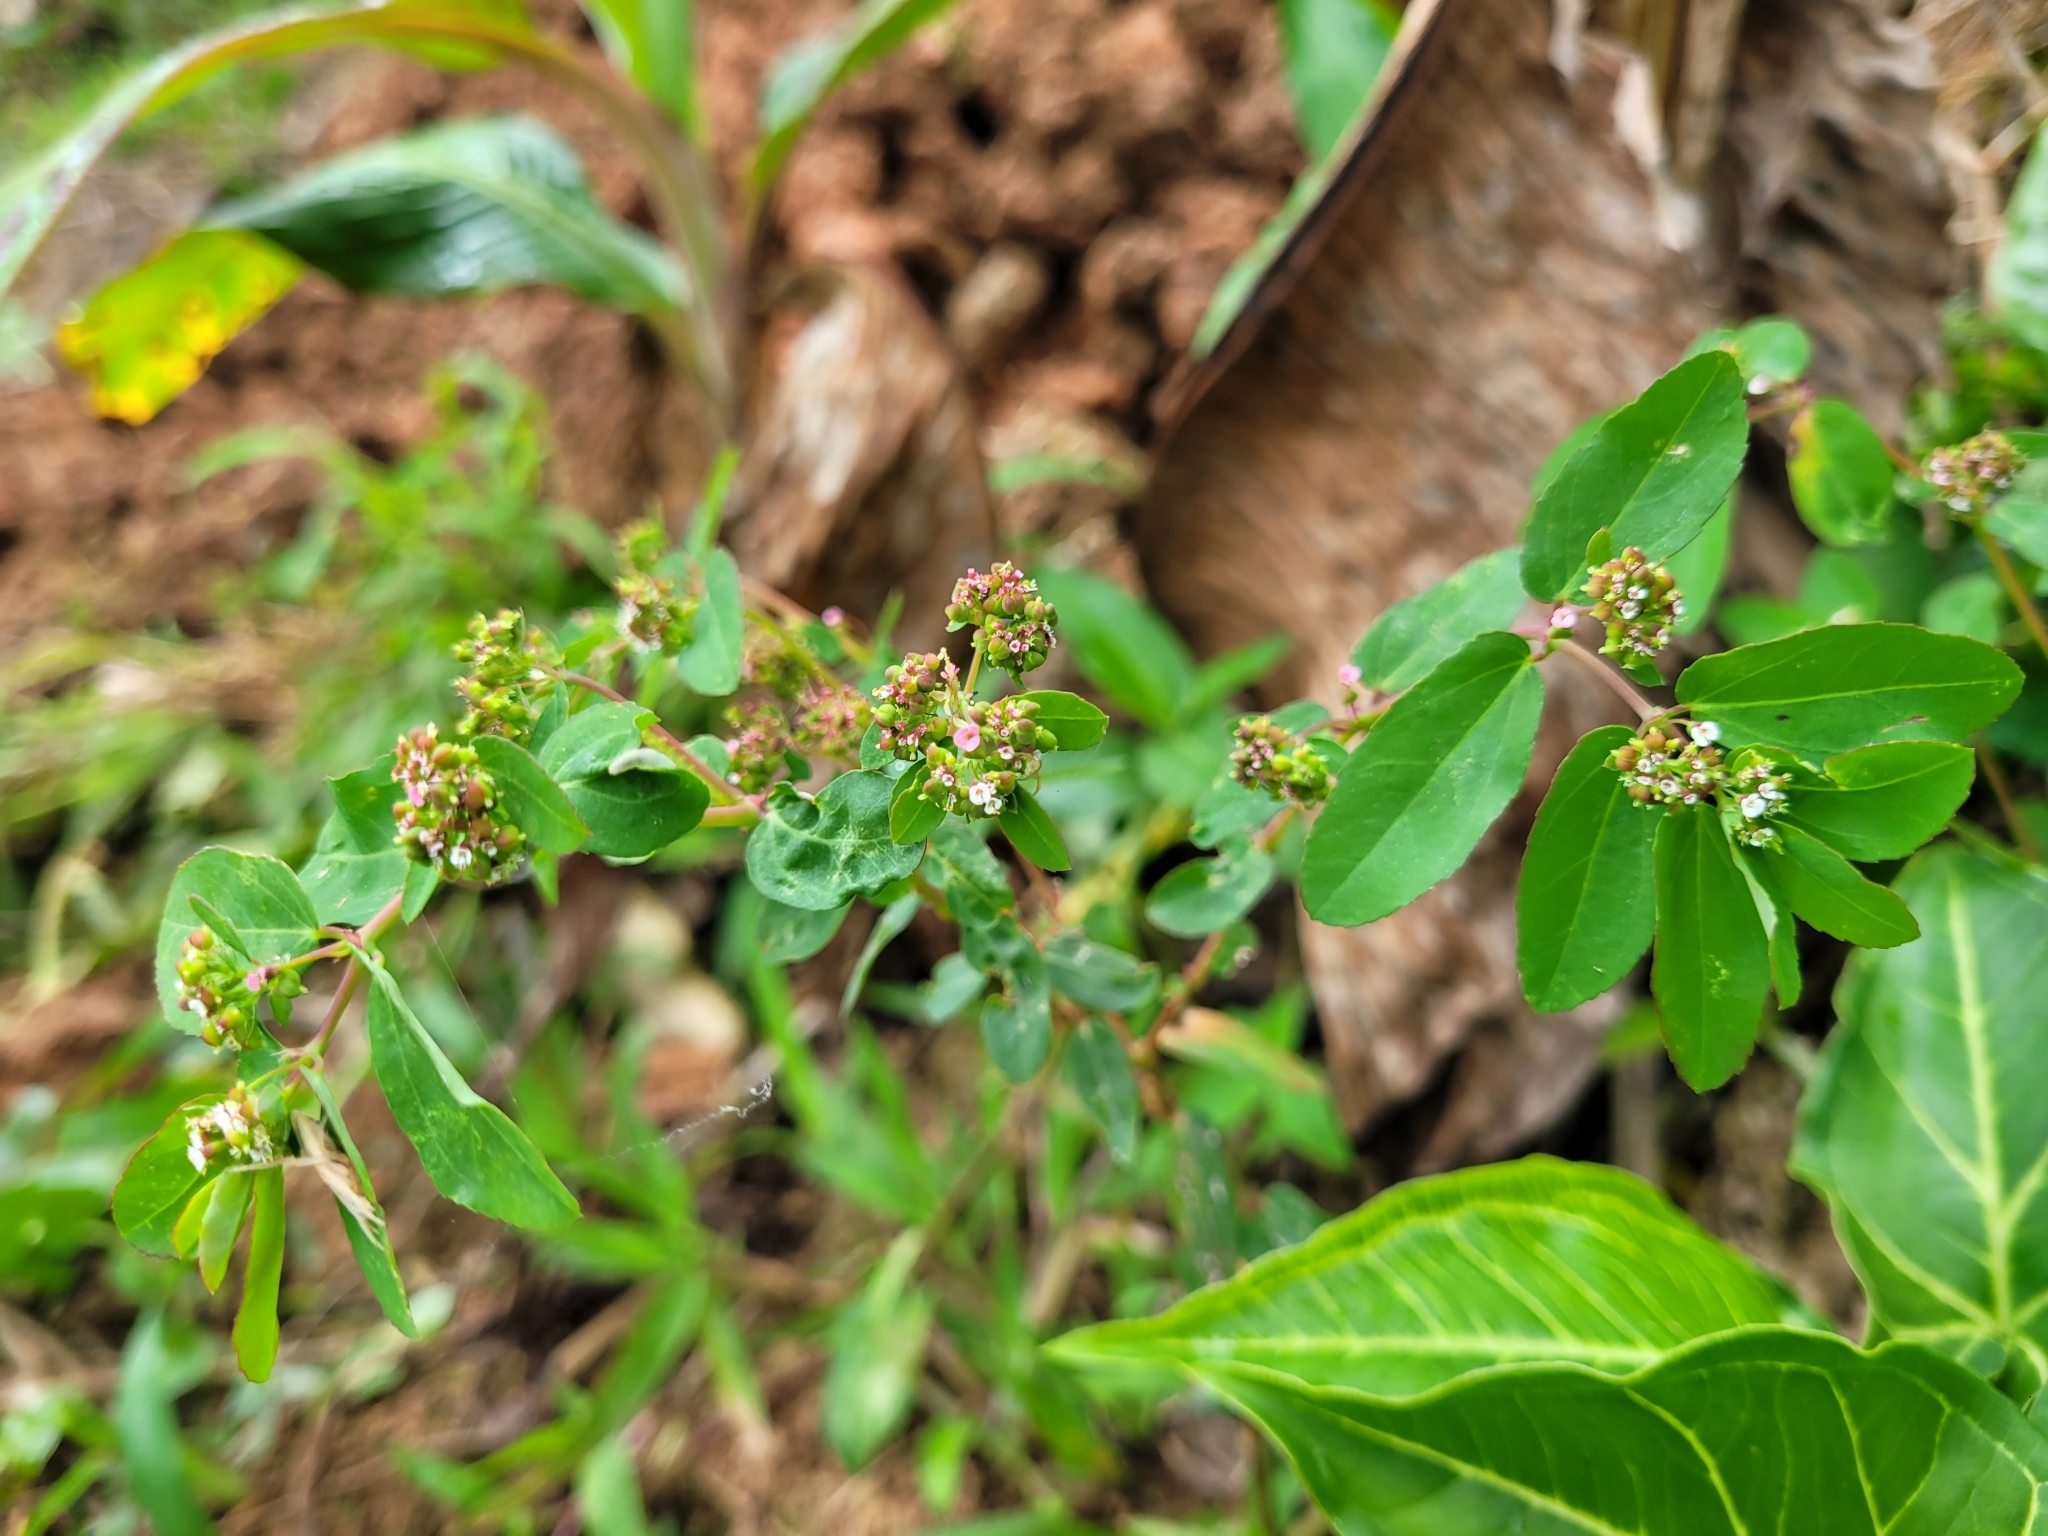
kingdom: Plantae
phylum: Tracheophyta
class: Magnoliopsida
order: Malpighiales
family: Euphorbiaceae
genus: Euphorbia
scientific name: Euphorbia hypericifolia
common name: Graceful sandmat
